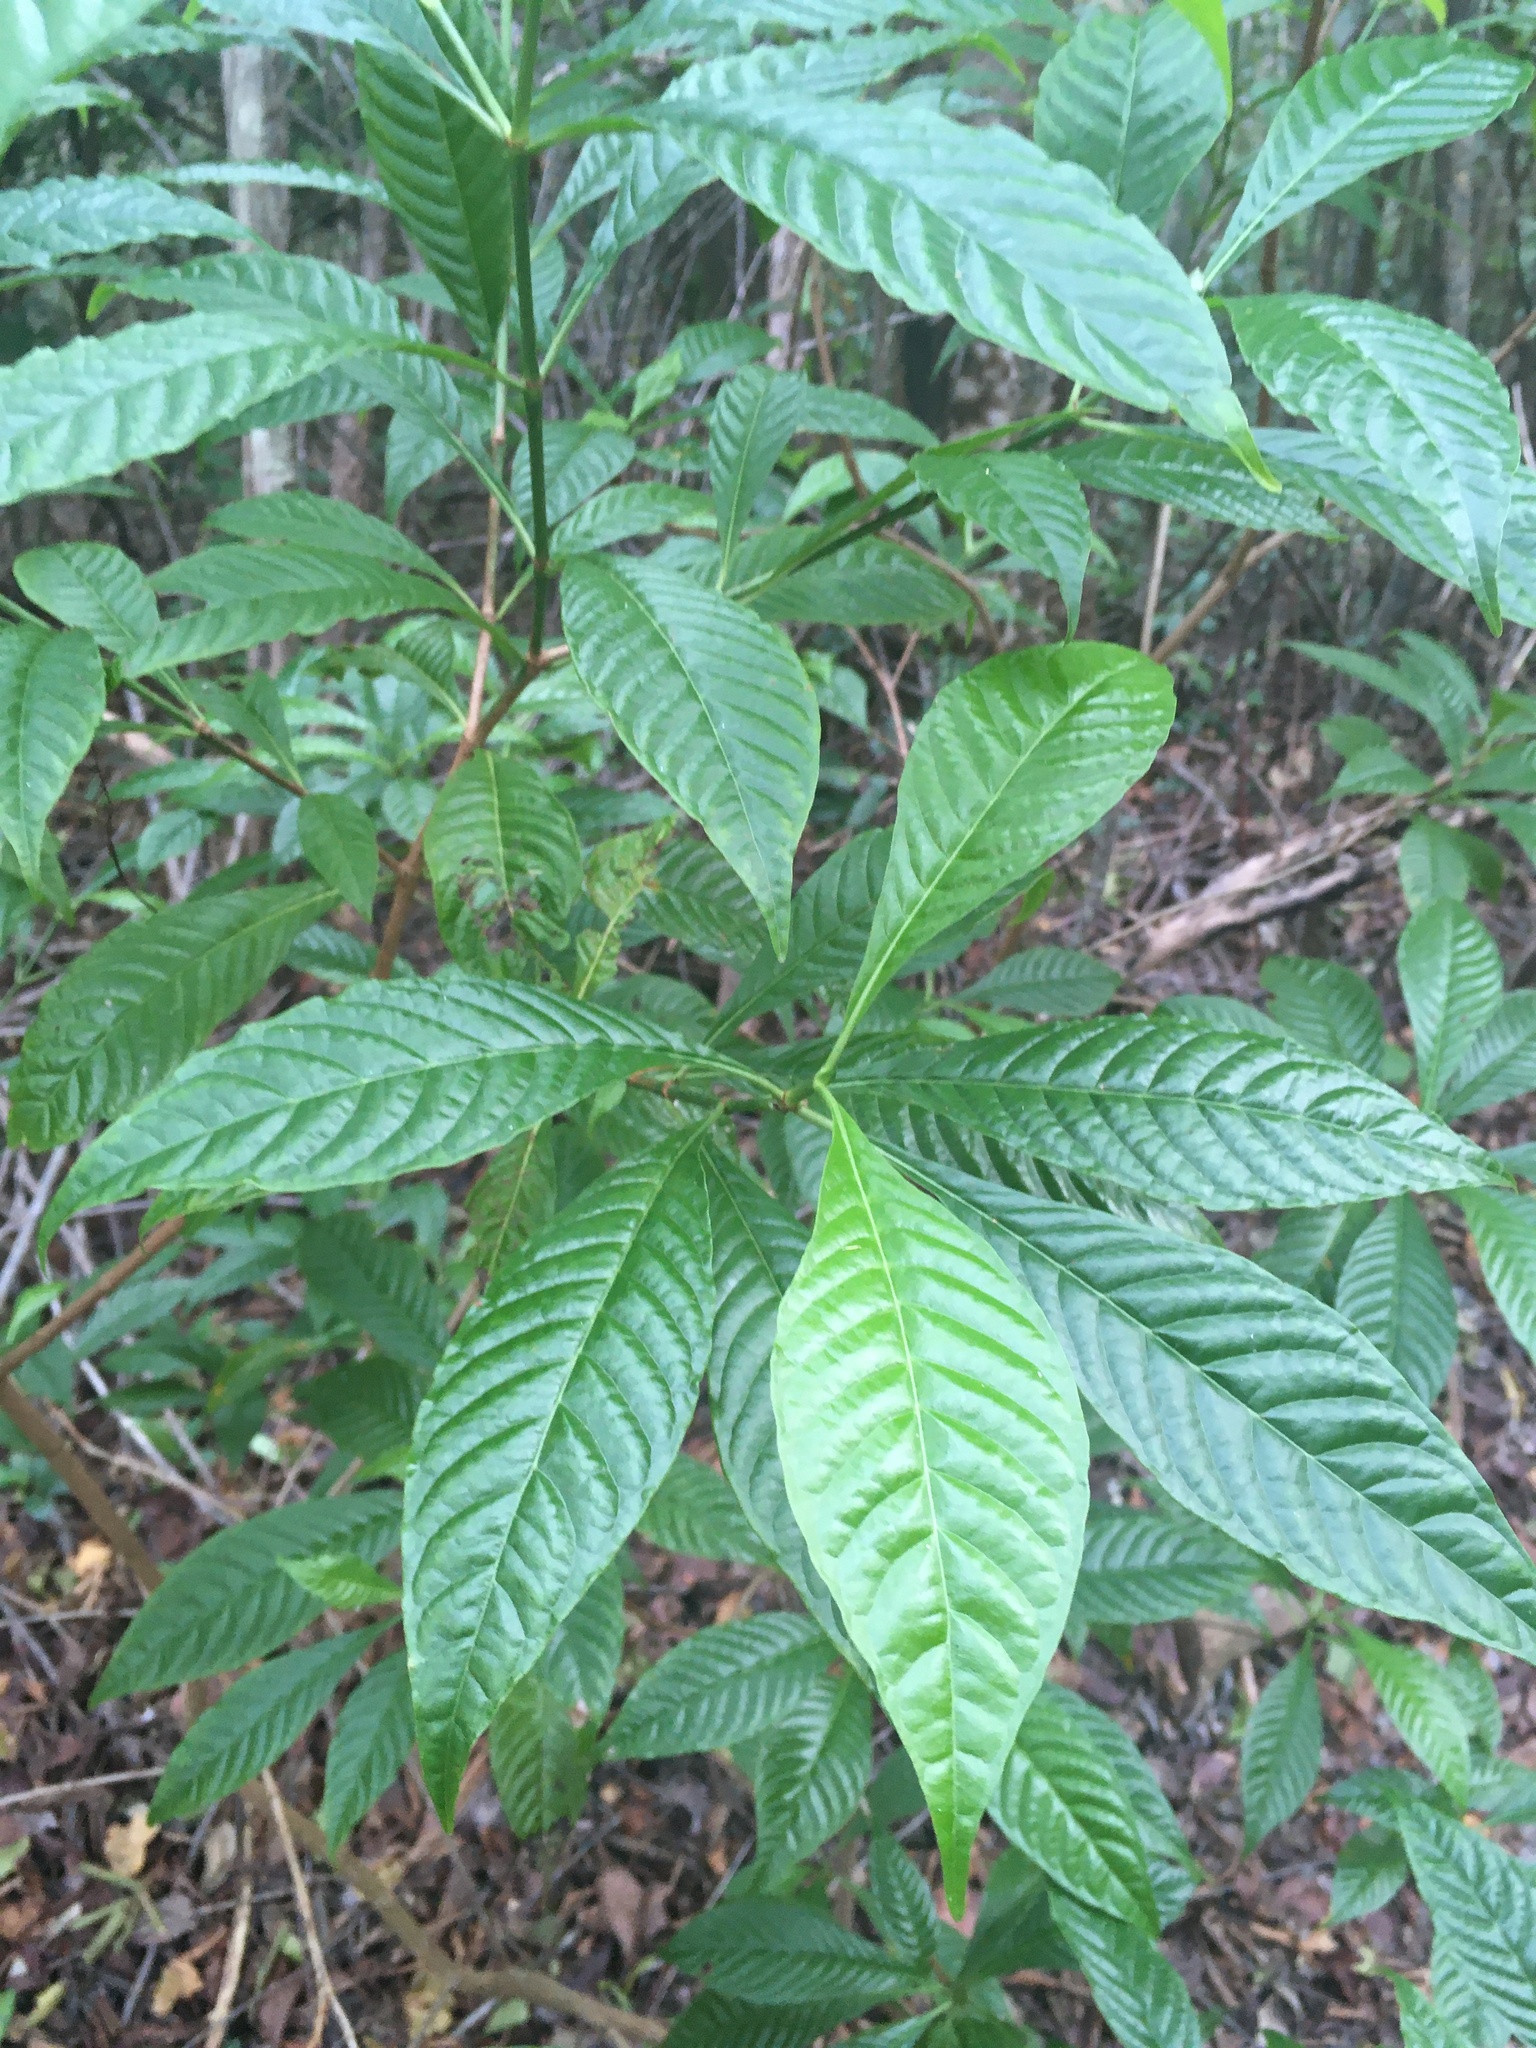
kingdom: Plantae
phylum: Tracheophyta
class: Magnoliopsida
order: Gentianales
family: Rubiaceae
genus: Psychotria
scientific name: Psychotria nervosa
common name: Bastard cankerberry
